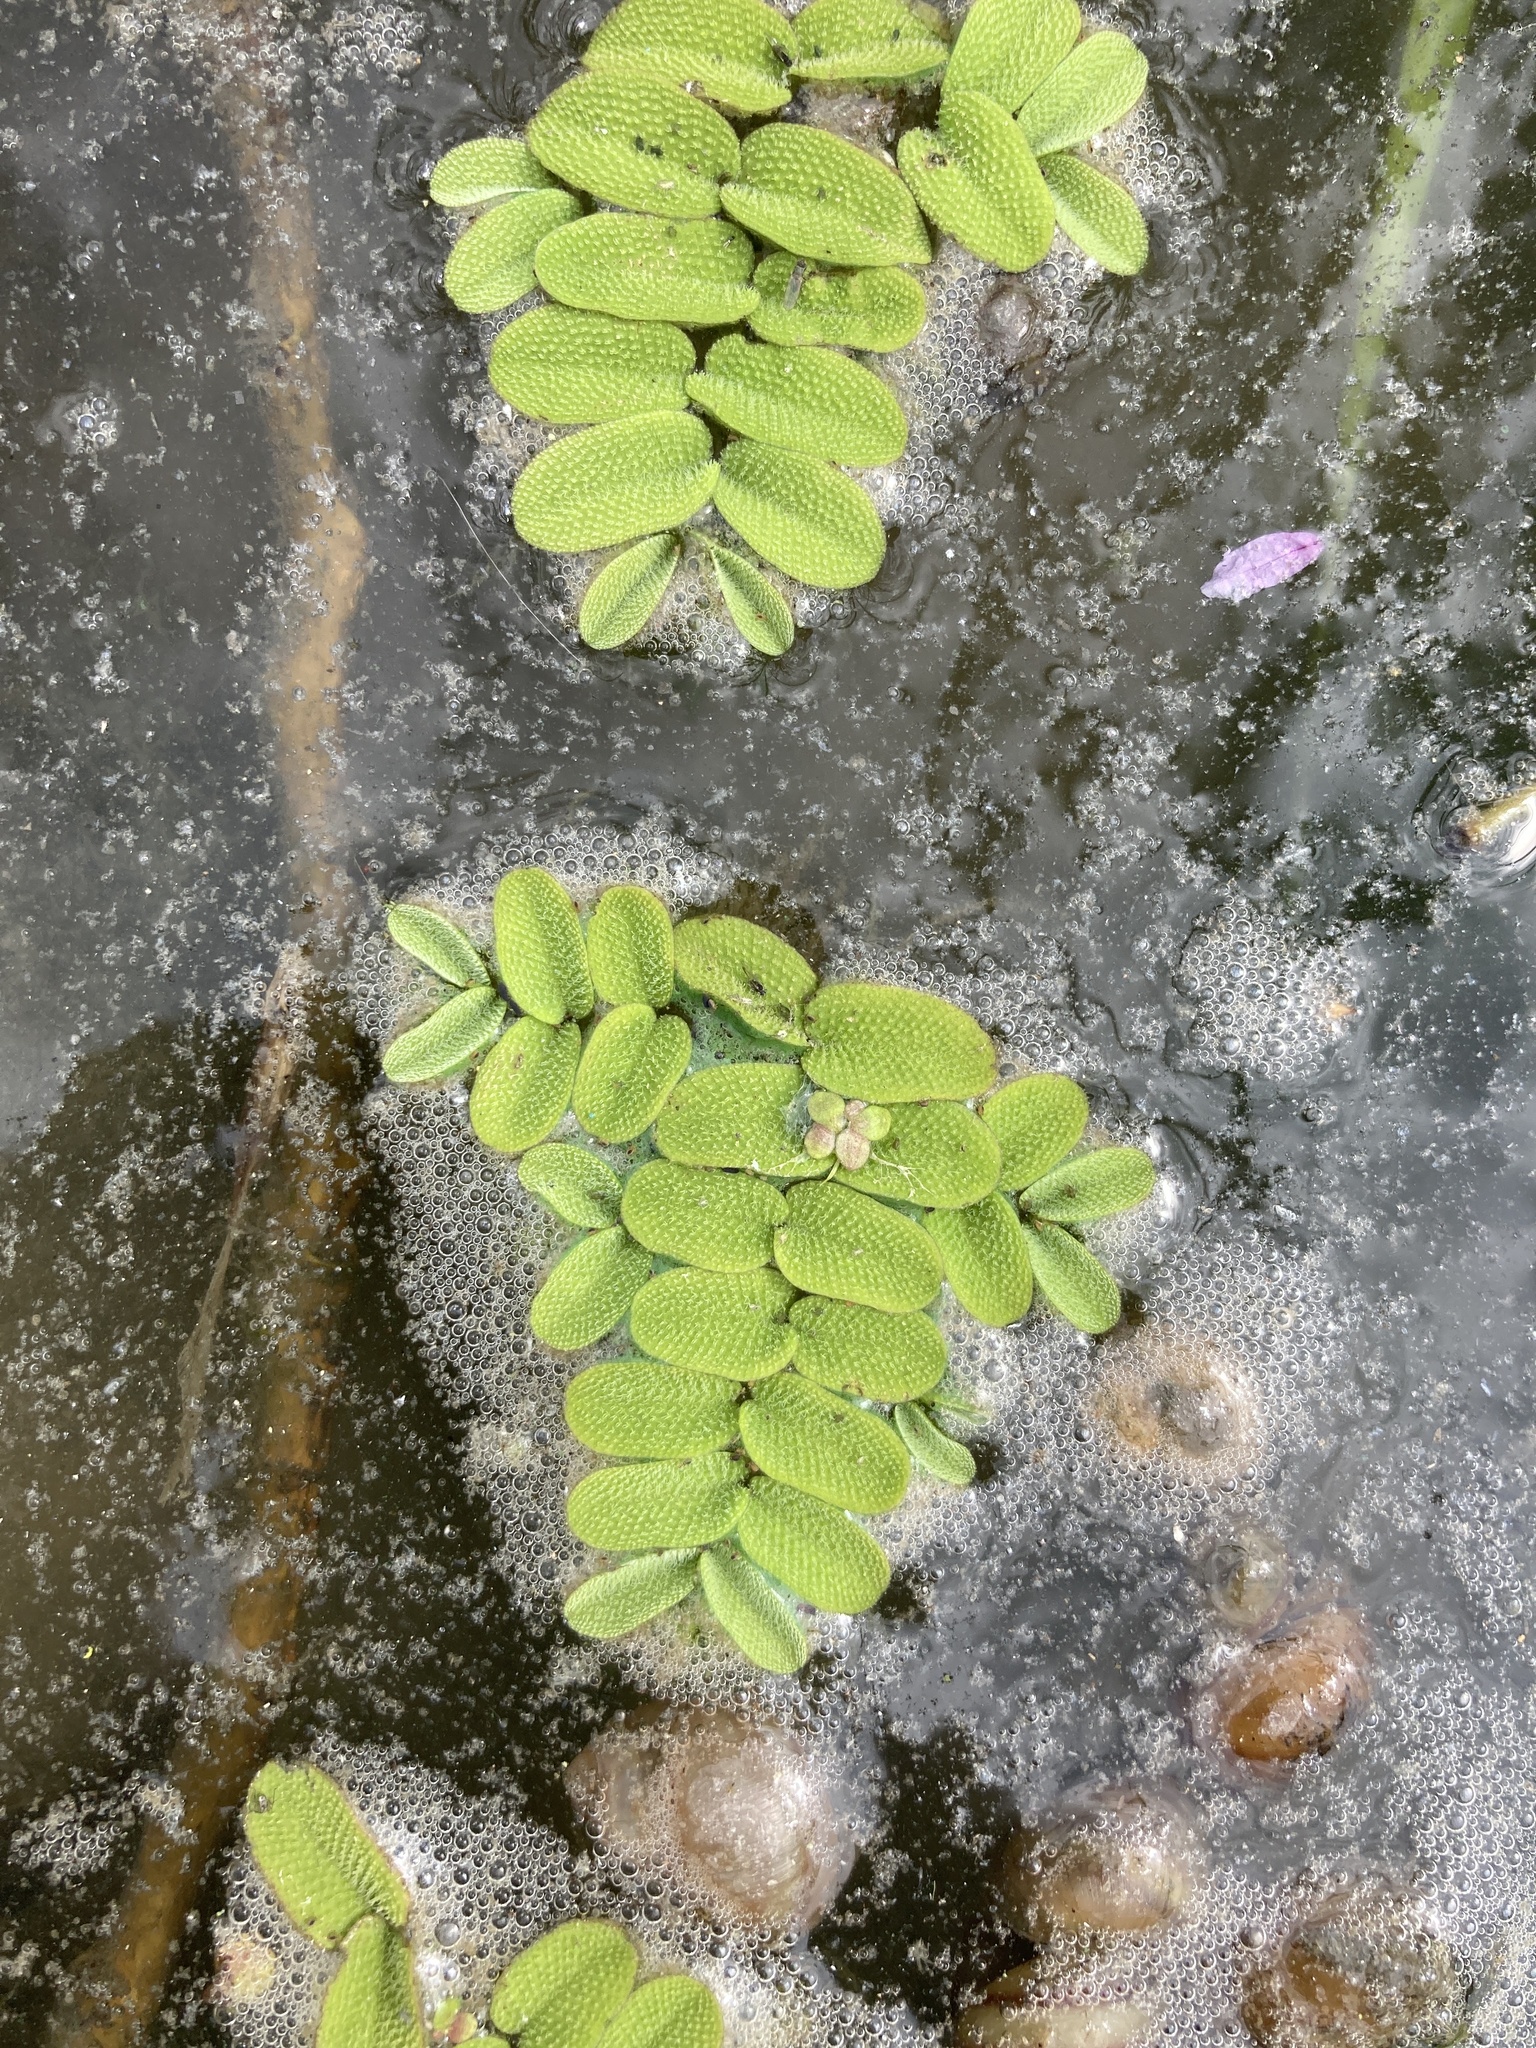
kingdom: Plantae
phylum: Tracheophyta
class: Polypodiopsida
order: Salviniales
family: Salviniaceae
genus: Salvinia
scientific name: Salvinia natans
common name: Floating fern
